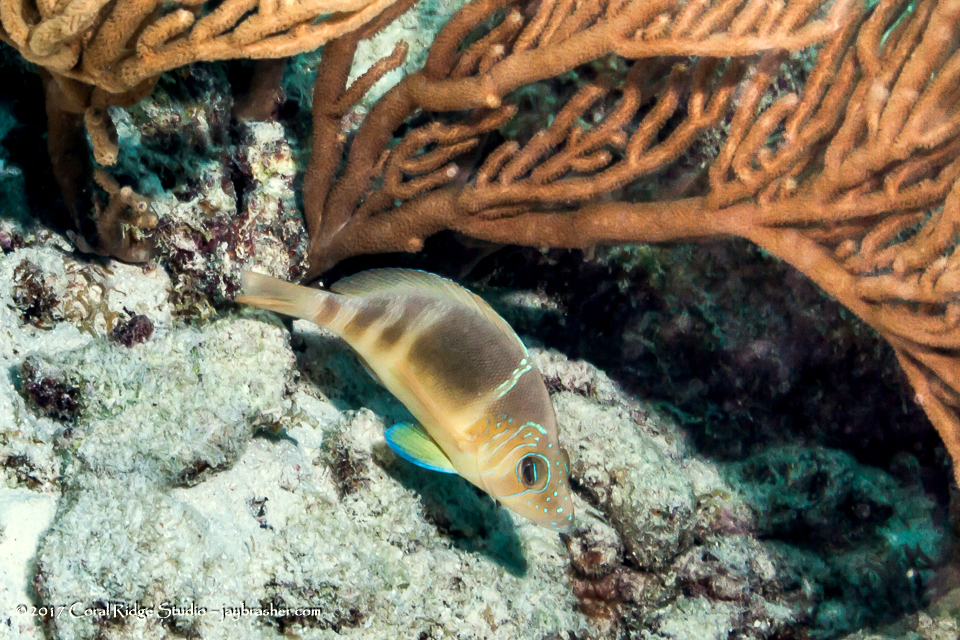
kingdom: Animalia
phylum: Chordata
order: Perciformes
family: Serranidae
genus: Hypoplectrus
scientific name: Hypoplectrus puella
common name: Barred hamlet
